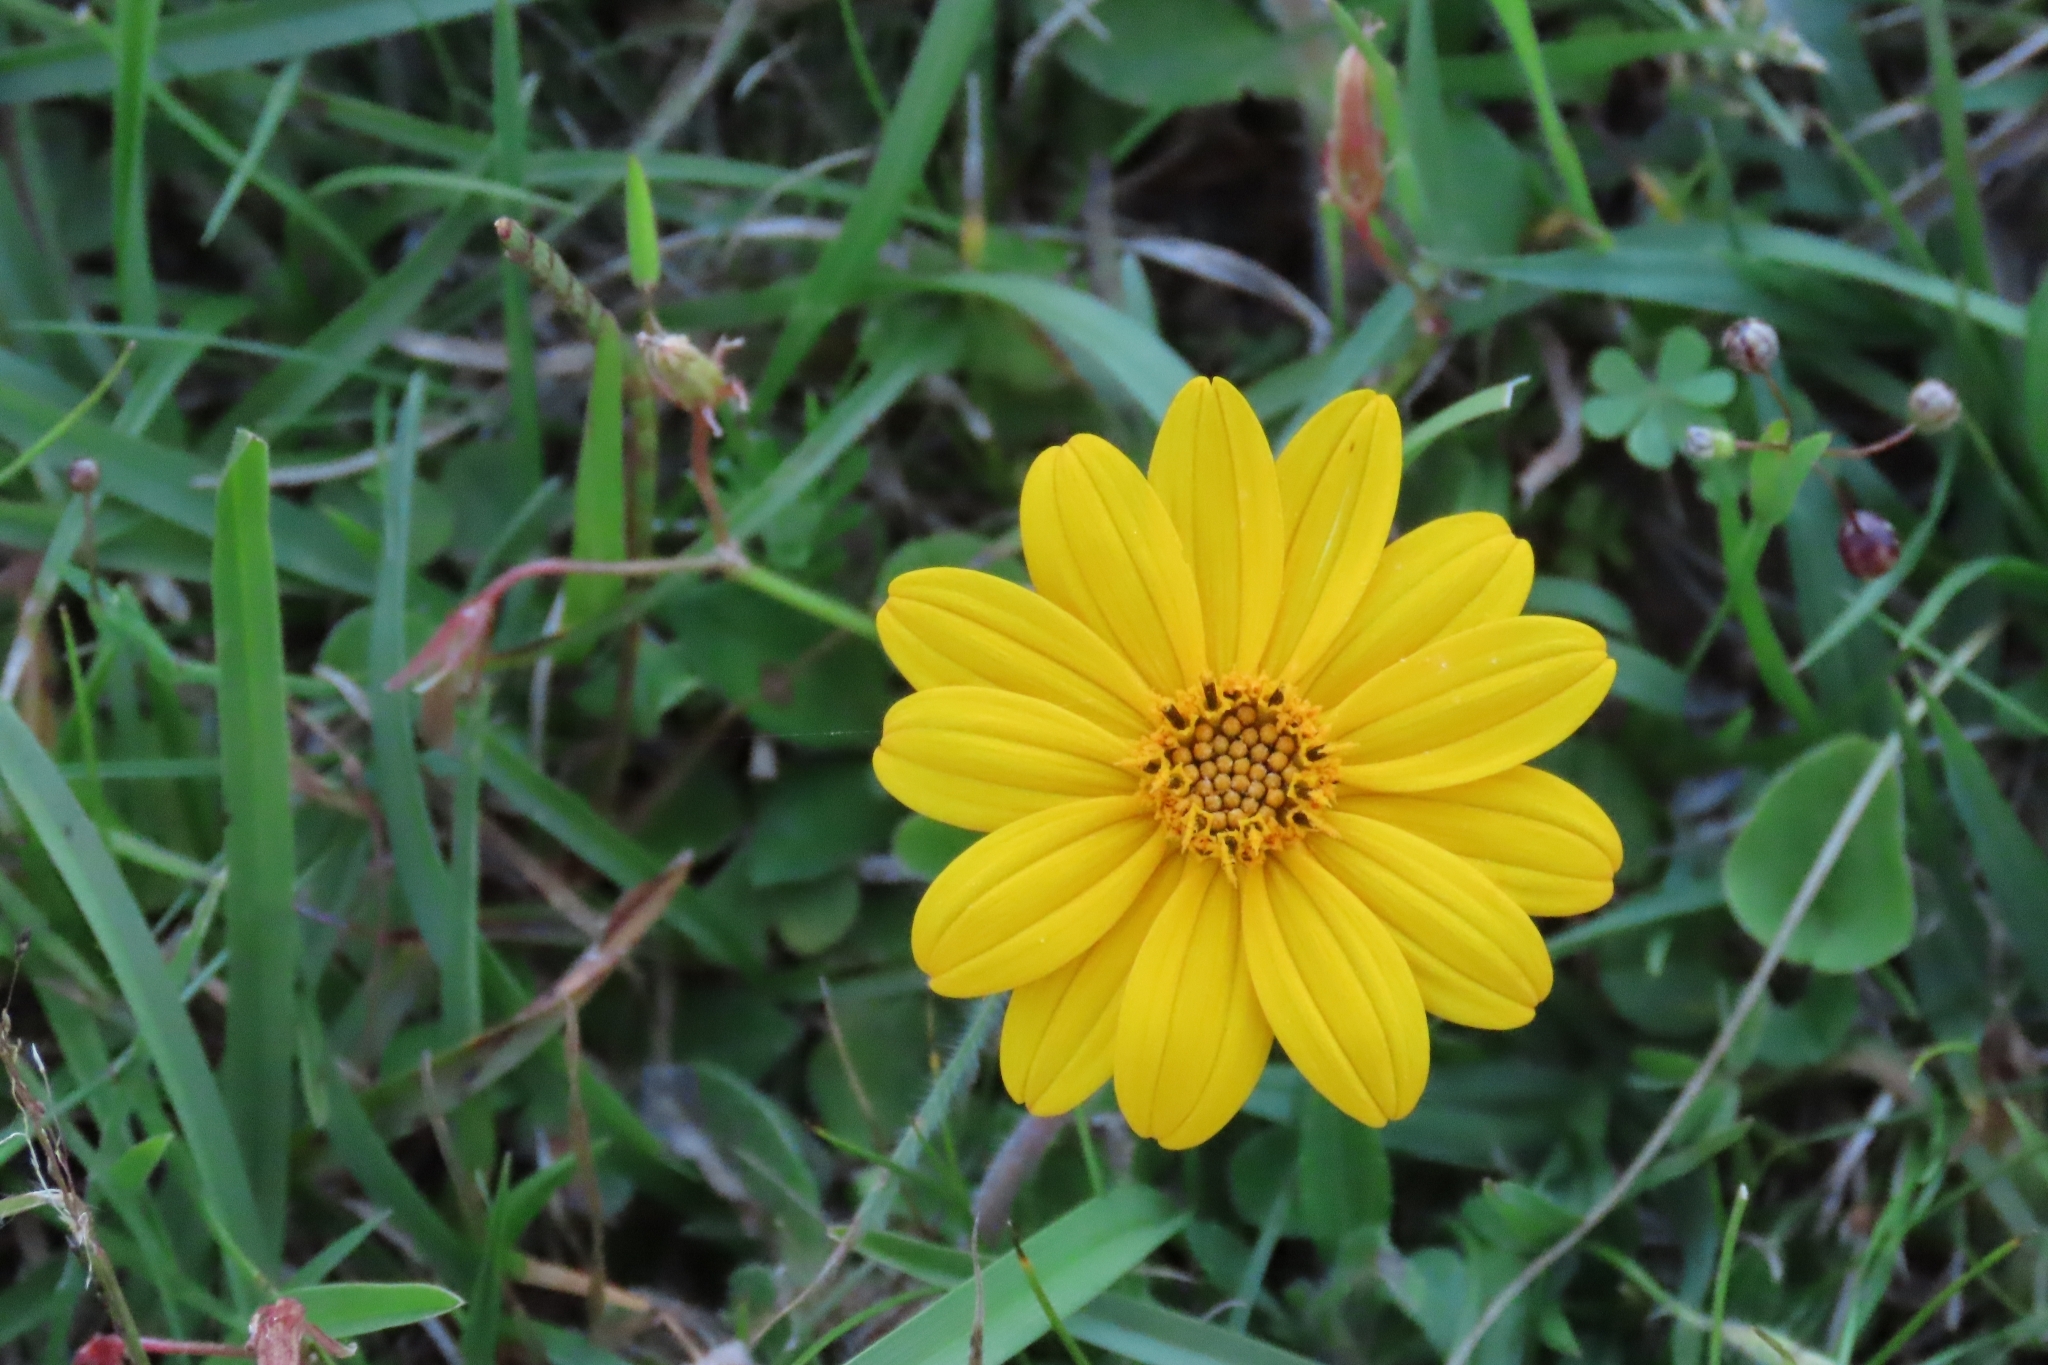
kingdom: Plantae
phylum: Tracheophyta
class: Magnoliopsida
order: Asterales
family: Asteraceae
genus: Wedelia
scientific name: Wedelia montevidensis
